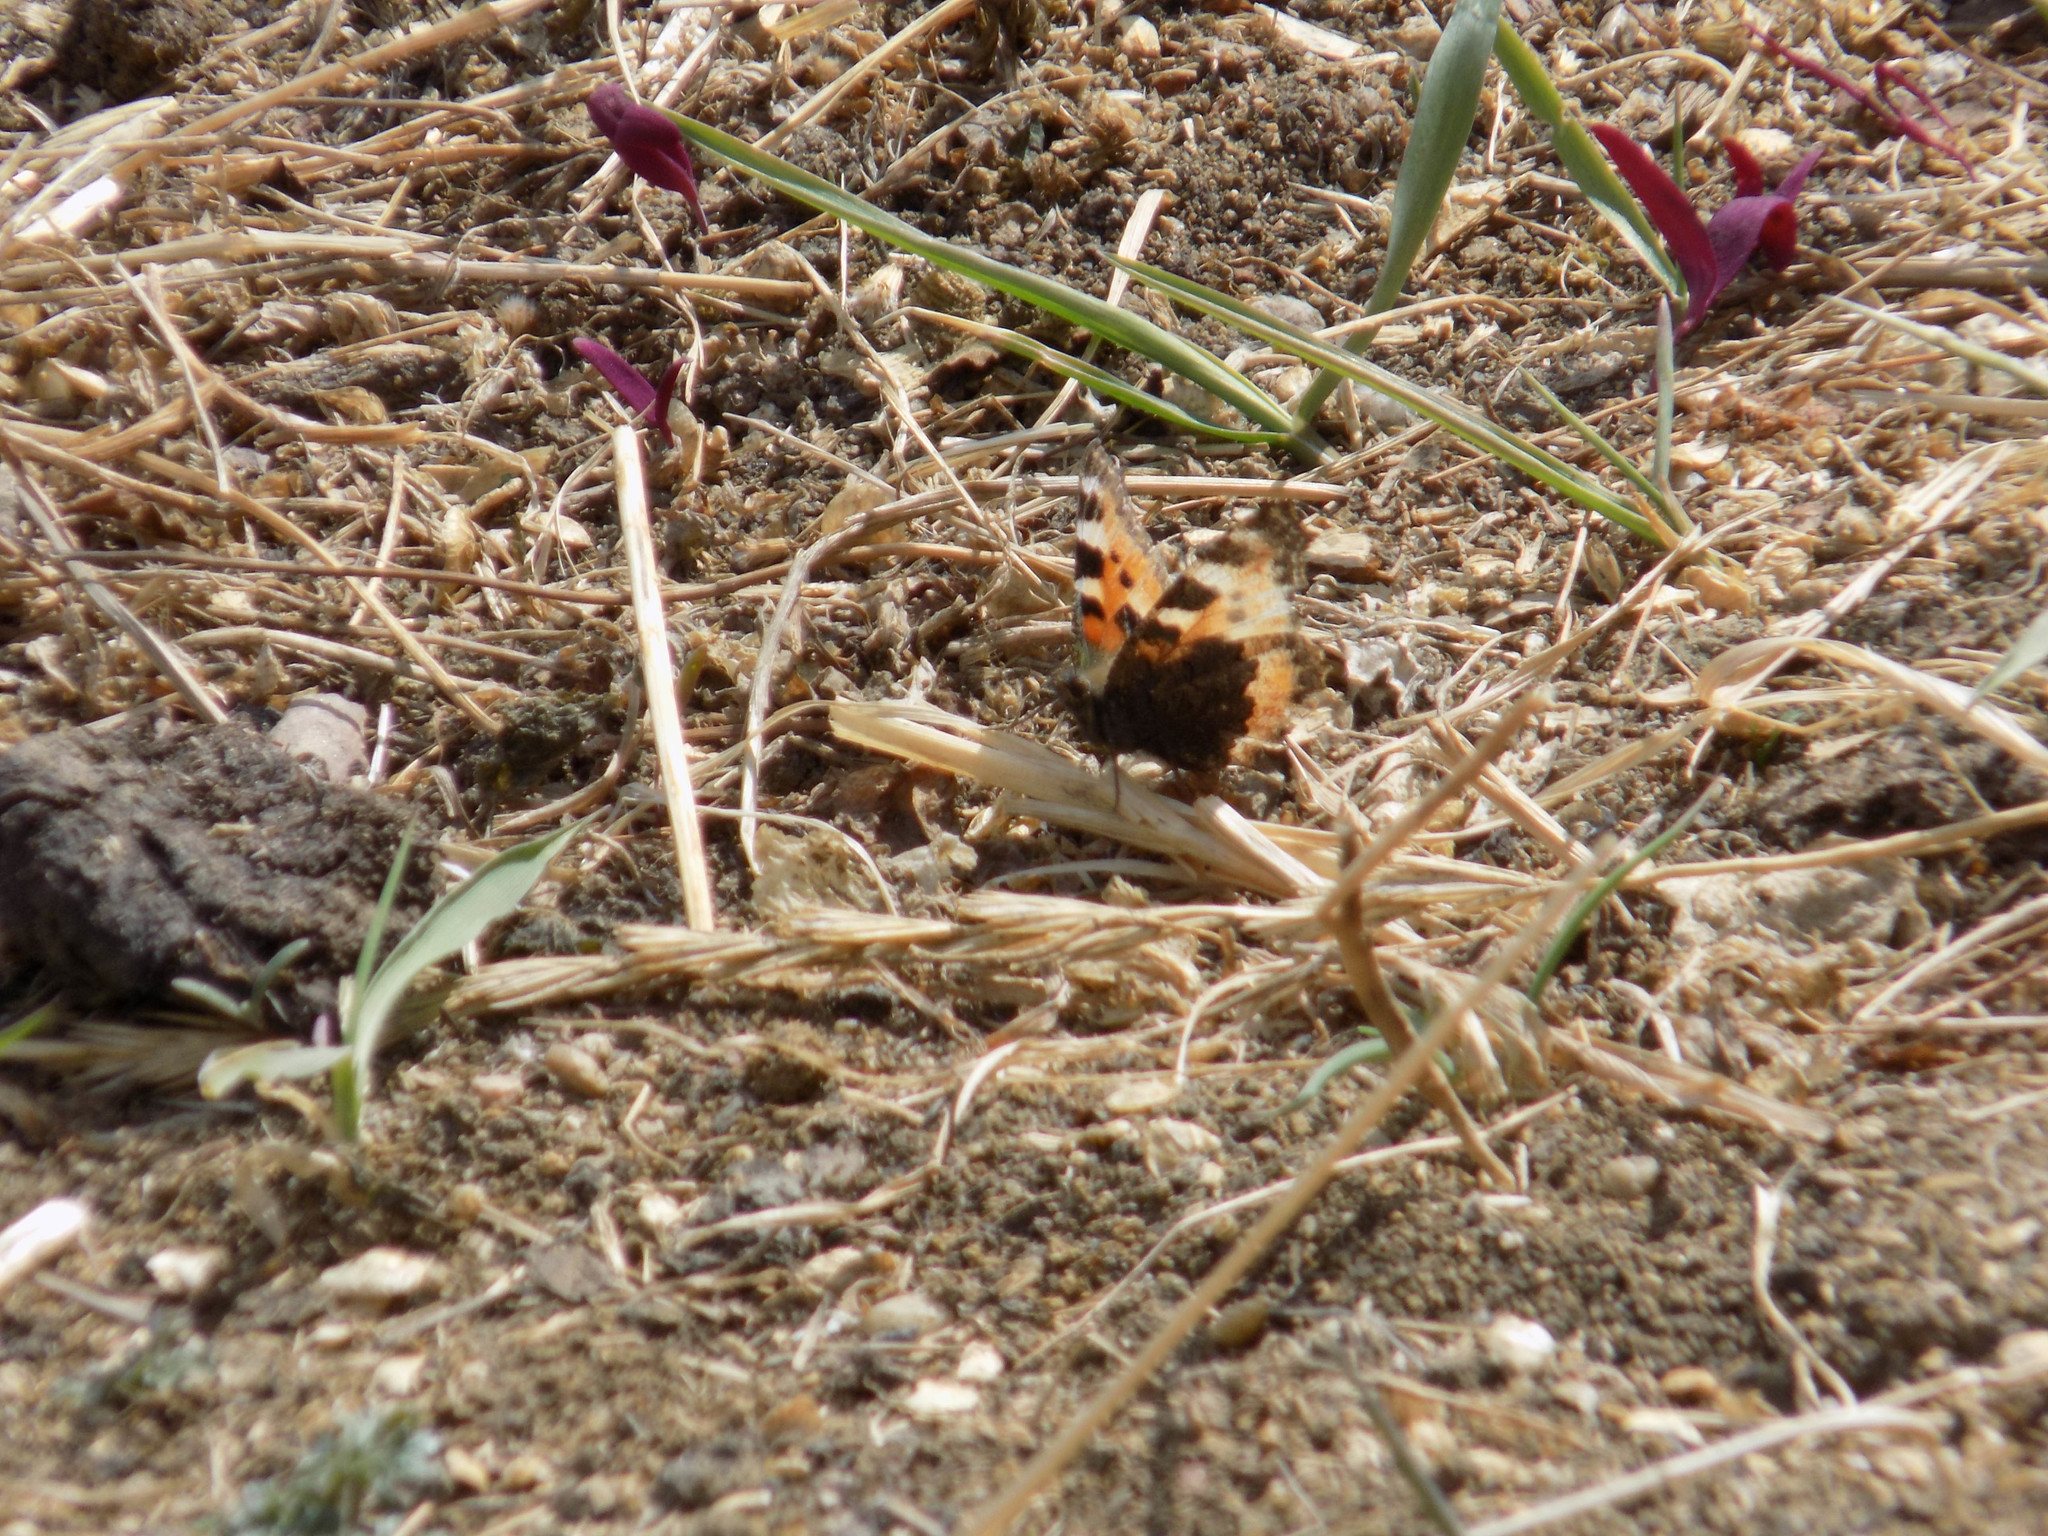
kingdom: Animalia
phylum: Arthropoda
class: Insecta
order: Lepidoptera
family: Nymphalidae
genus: Aglais
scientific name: Aglais urticae
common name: Small tortoiseshell
